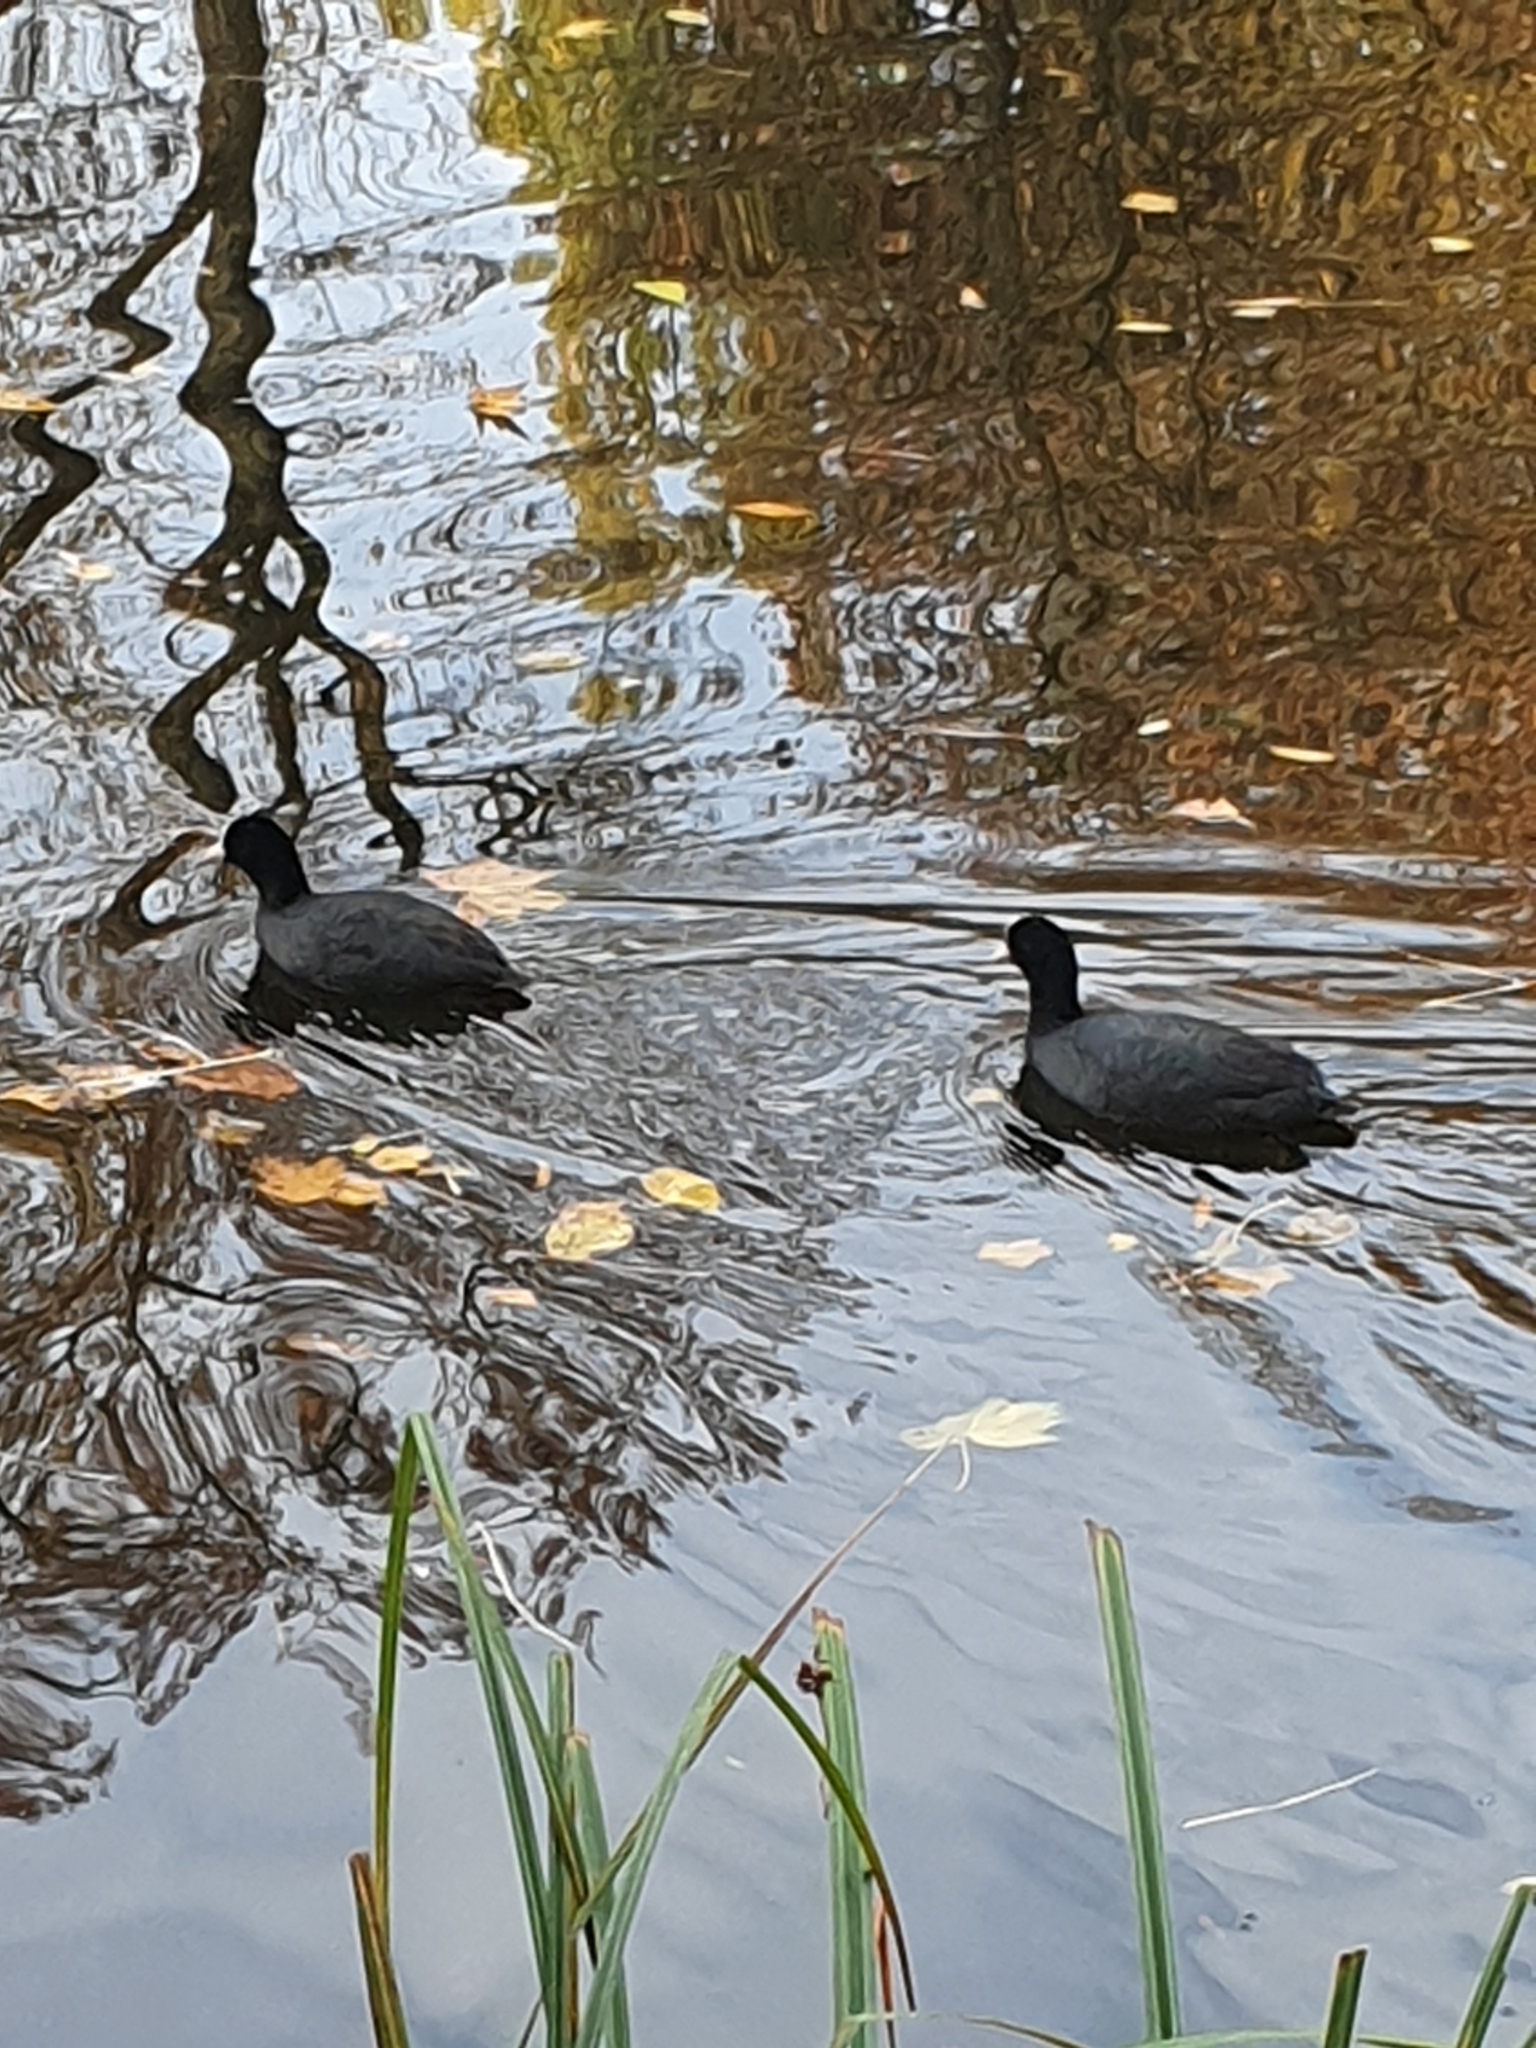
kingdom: Animalia
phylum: Chordata
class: Aves
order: Gruiformes
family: Rallidae
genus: Fulica
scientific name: Fulica atra
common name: Eurasian coot
